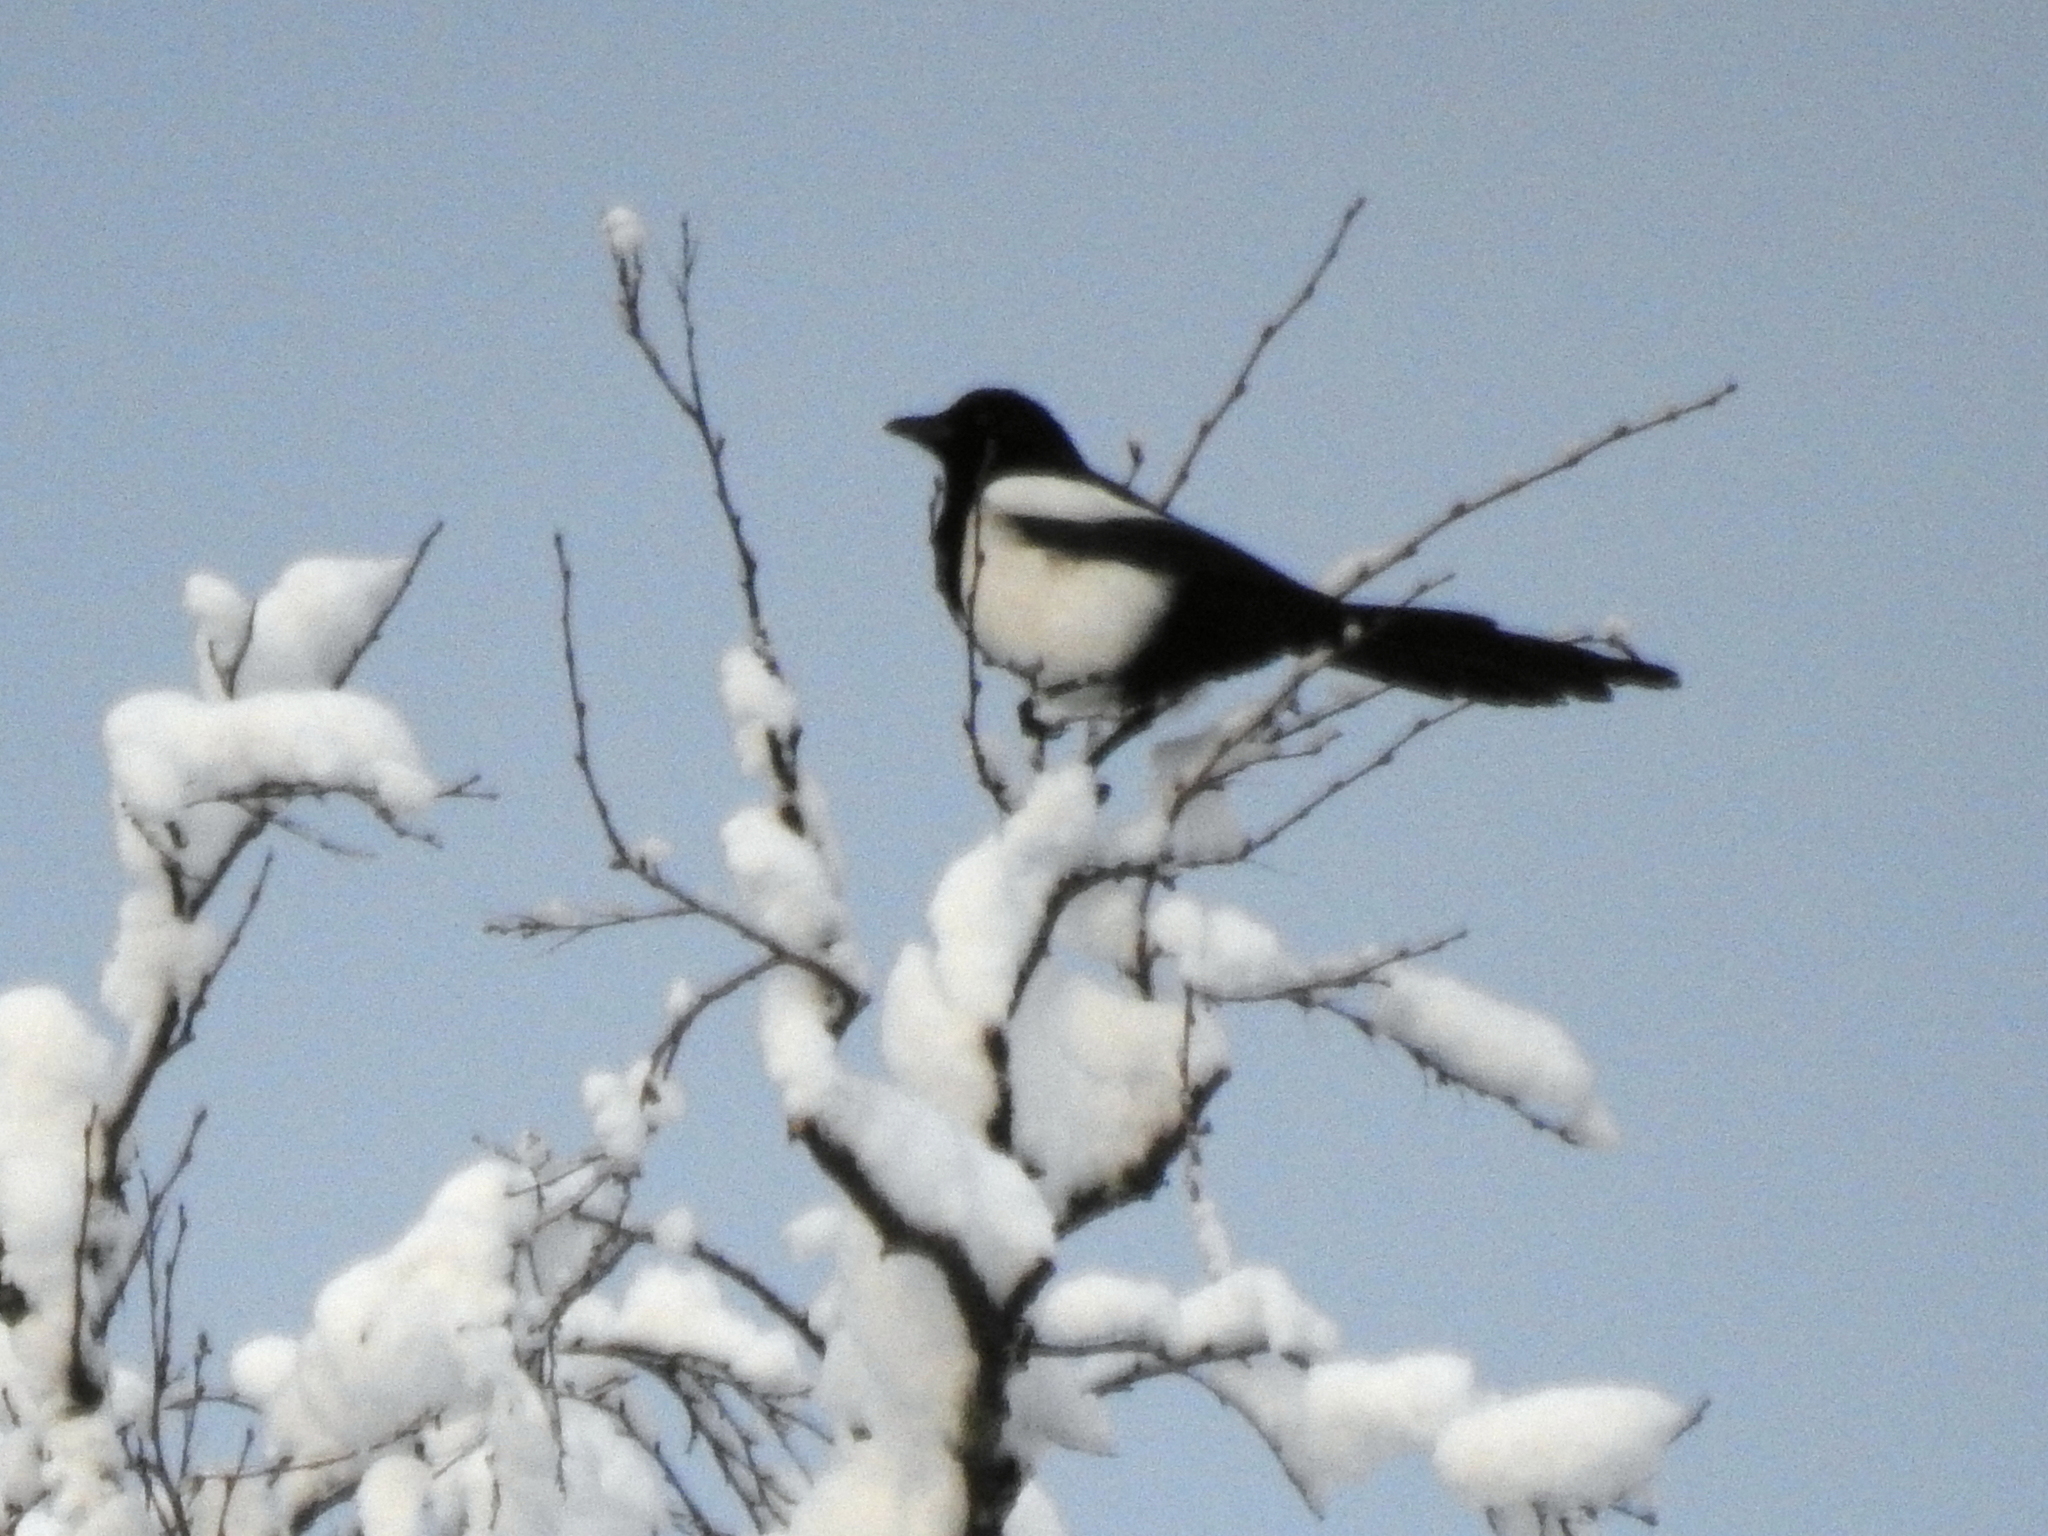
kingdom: Animalia
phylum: Chordata
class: Aves
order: Passeriformes
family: Corvidae
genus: Pica
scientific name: Pica pica
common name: Eurasian magpie
